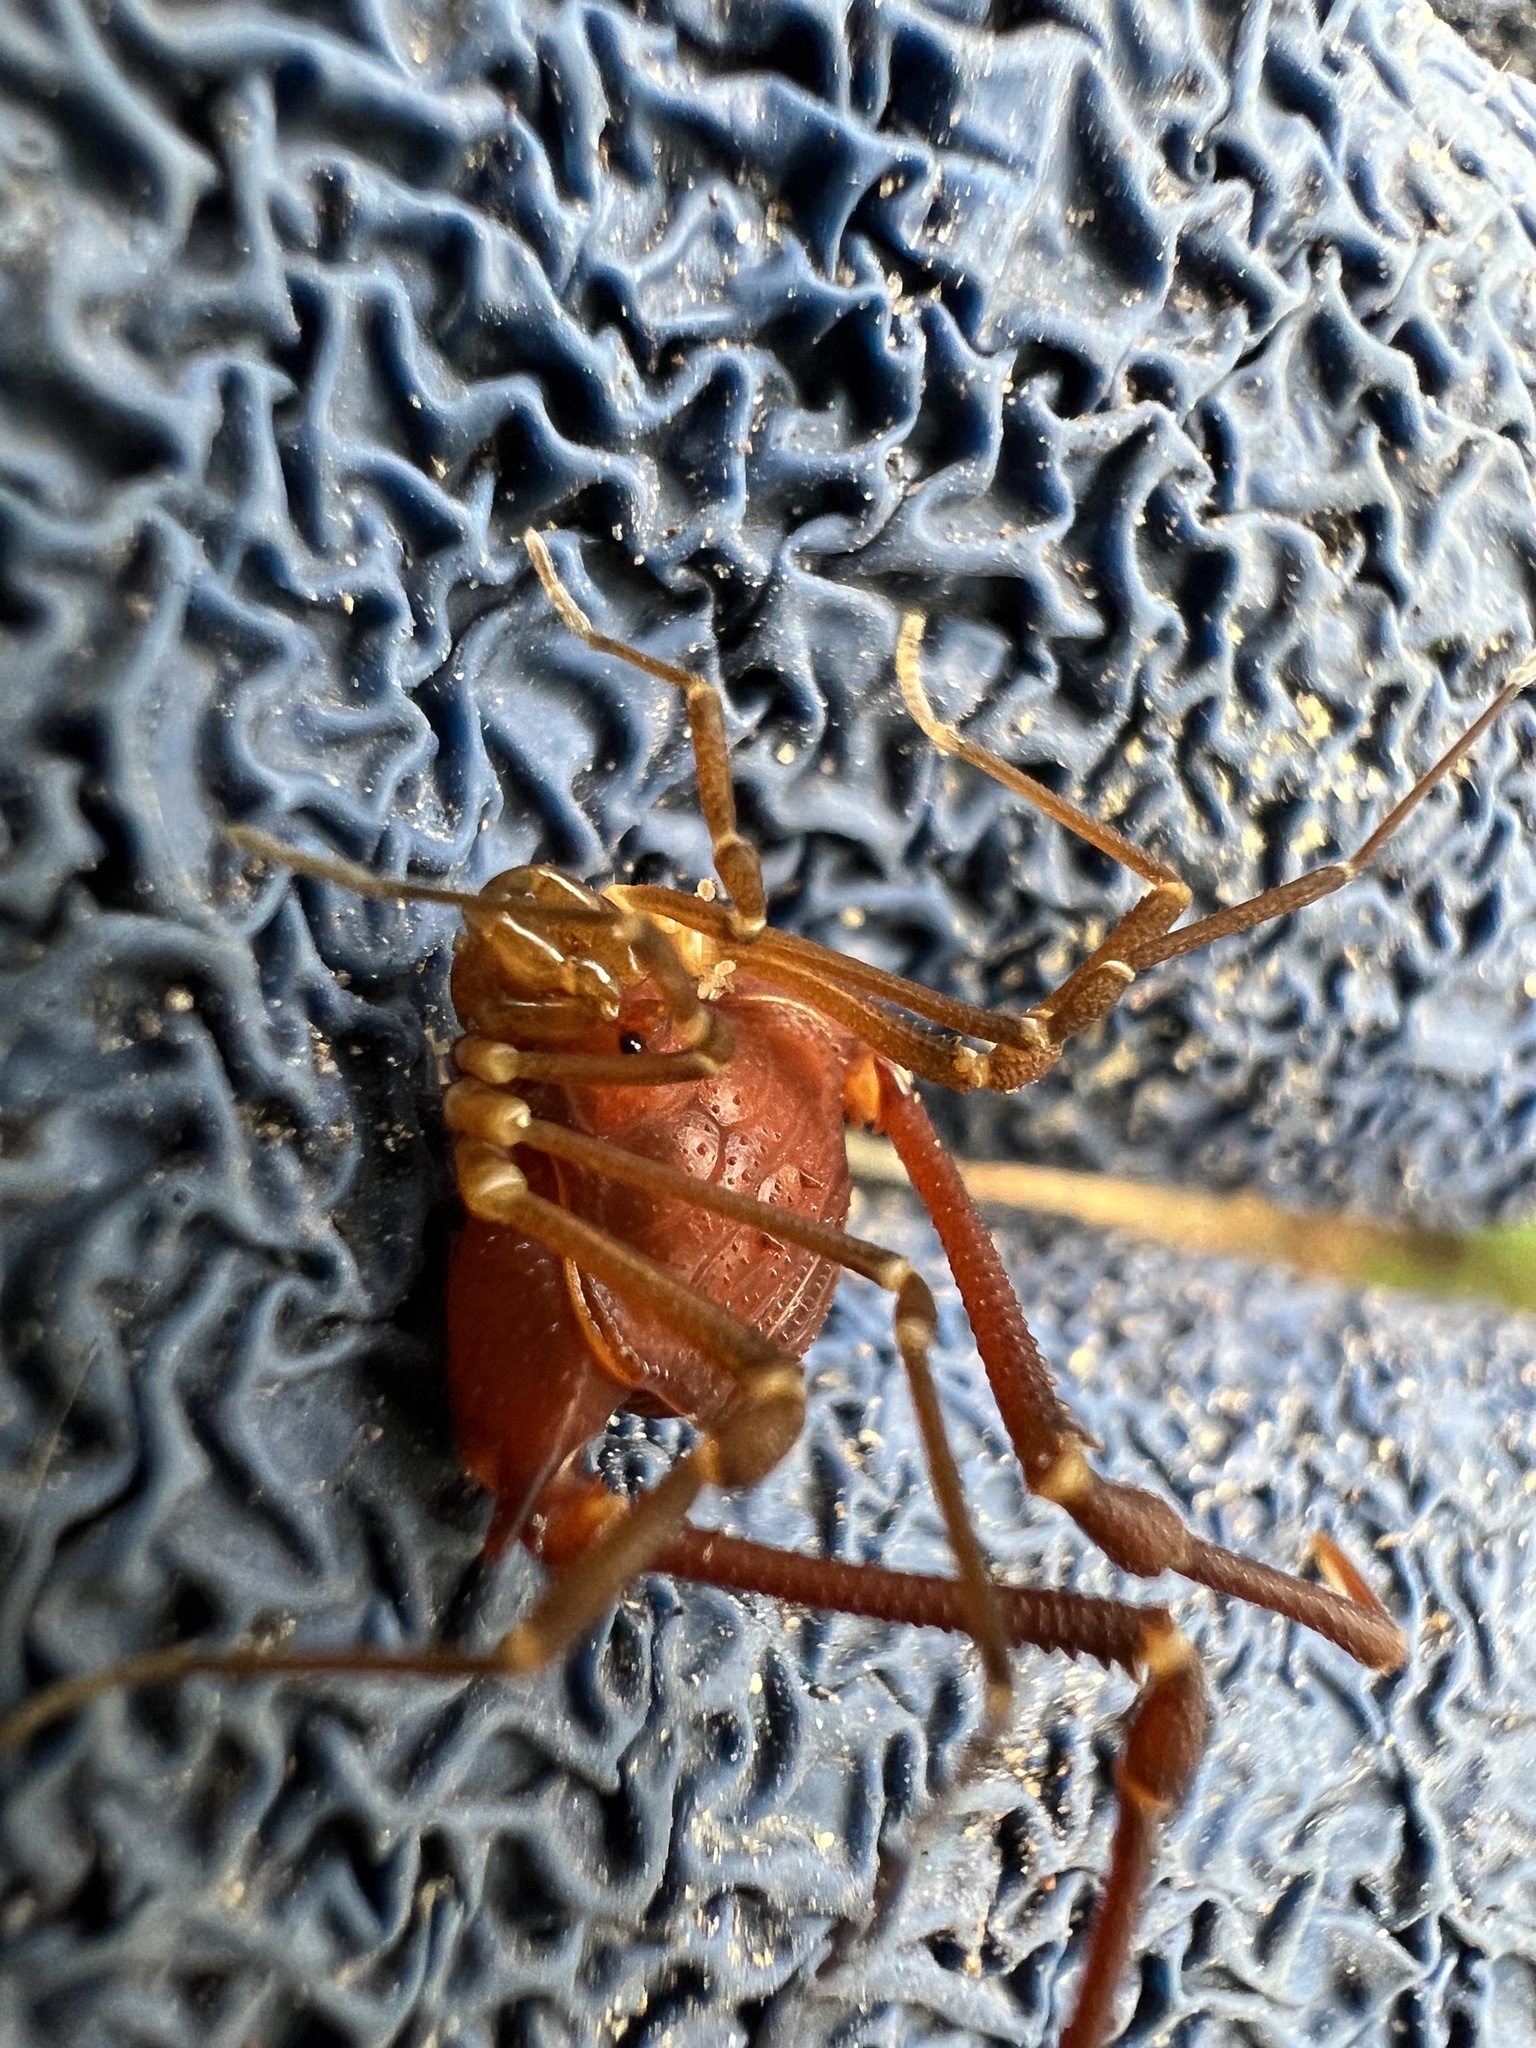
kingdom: Animalia
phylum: Arthropoda
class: Arachnida
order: Opiliones
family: Gonyleptidae
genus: Krateromaspis
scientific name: Krateromaspis dilatata
